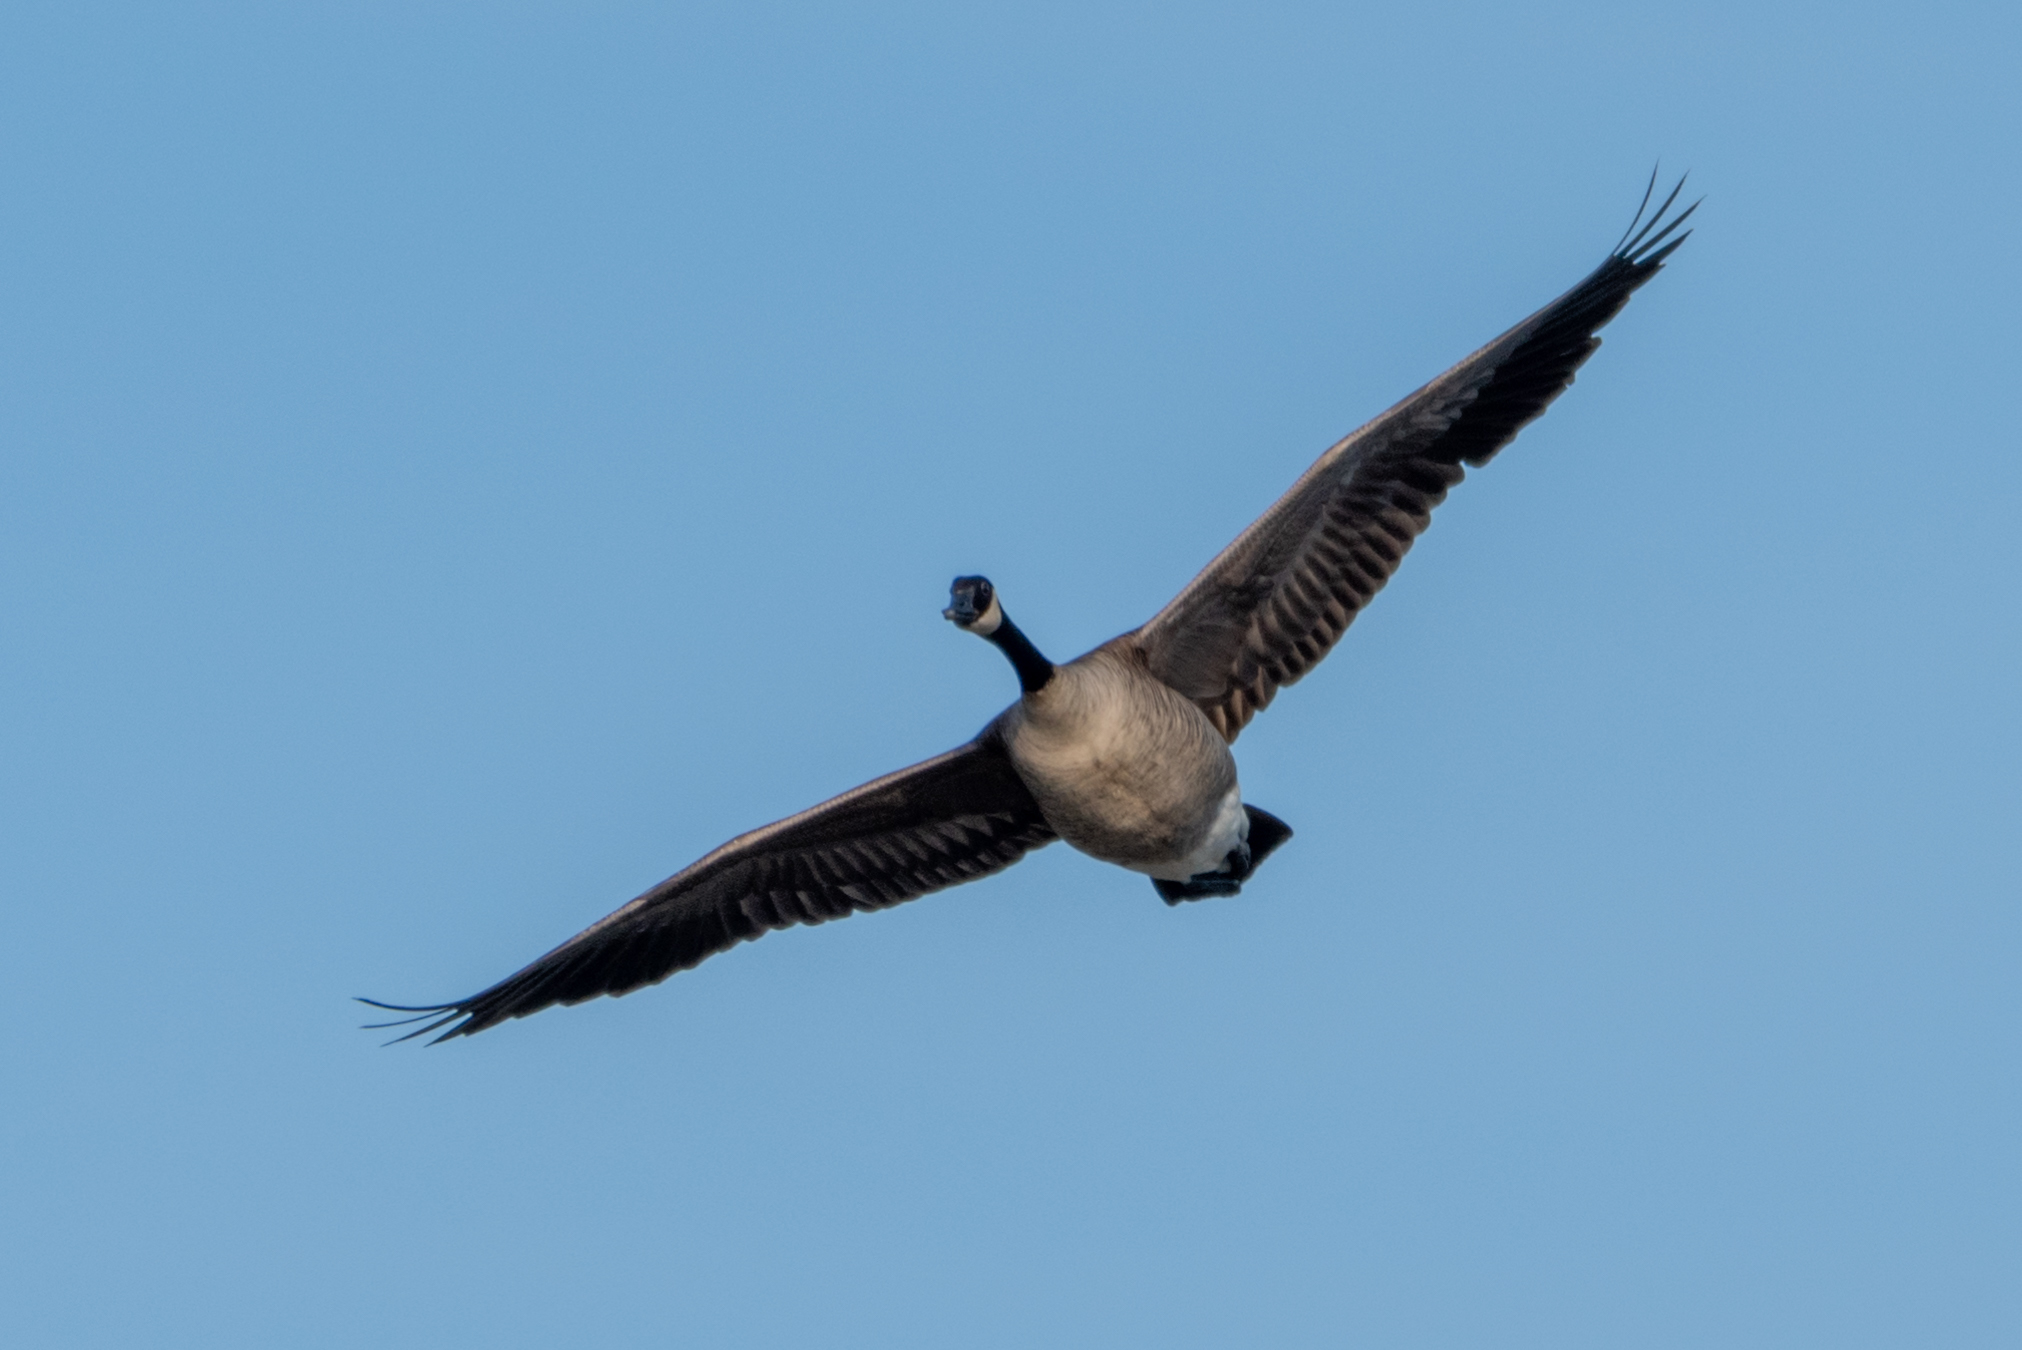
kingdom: Animalia
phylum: Chordata
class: Aves
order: Anseriformes
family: Anatidae
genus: Branta
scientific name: Branta canadensis
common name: Canada goose
